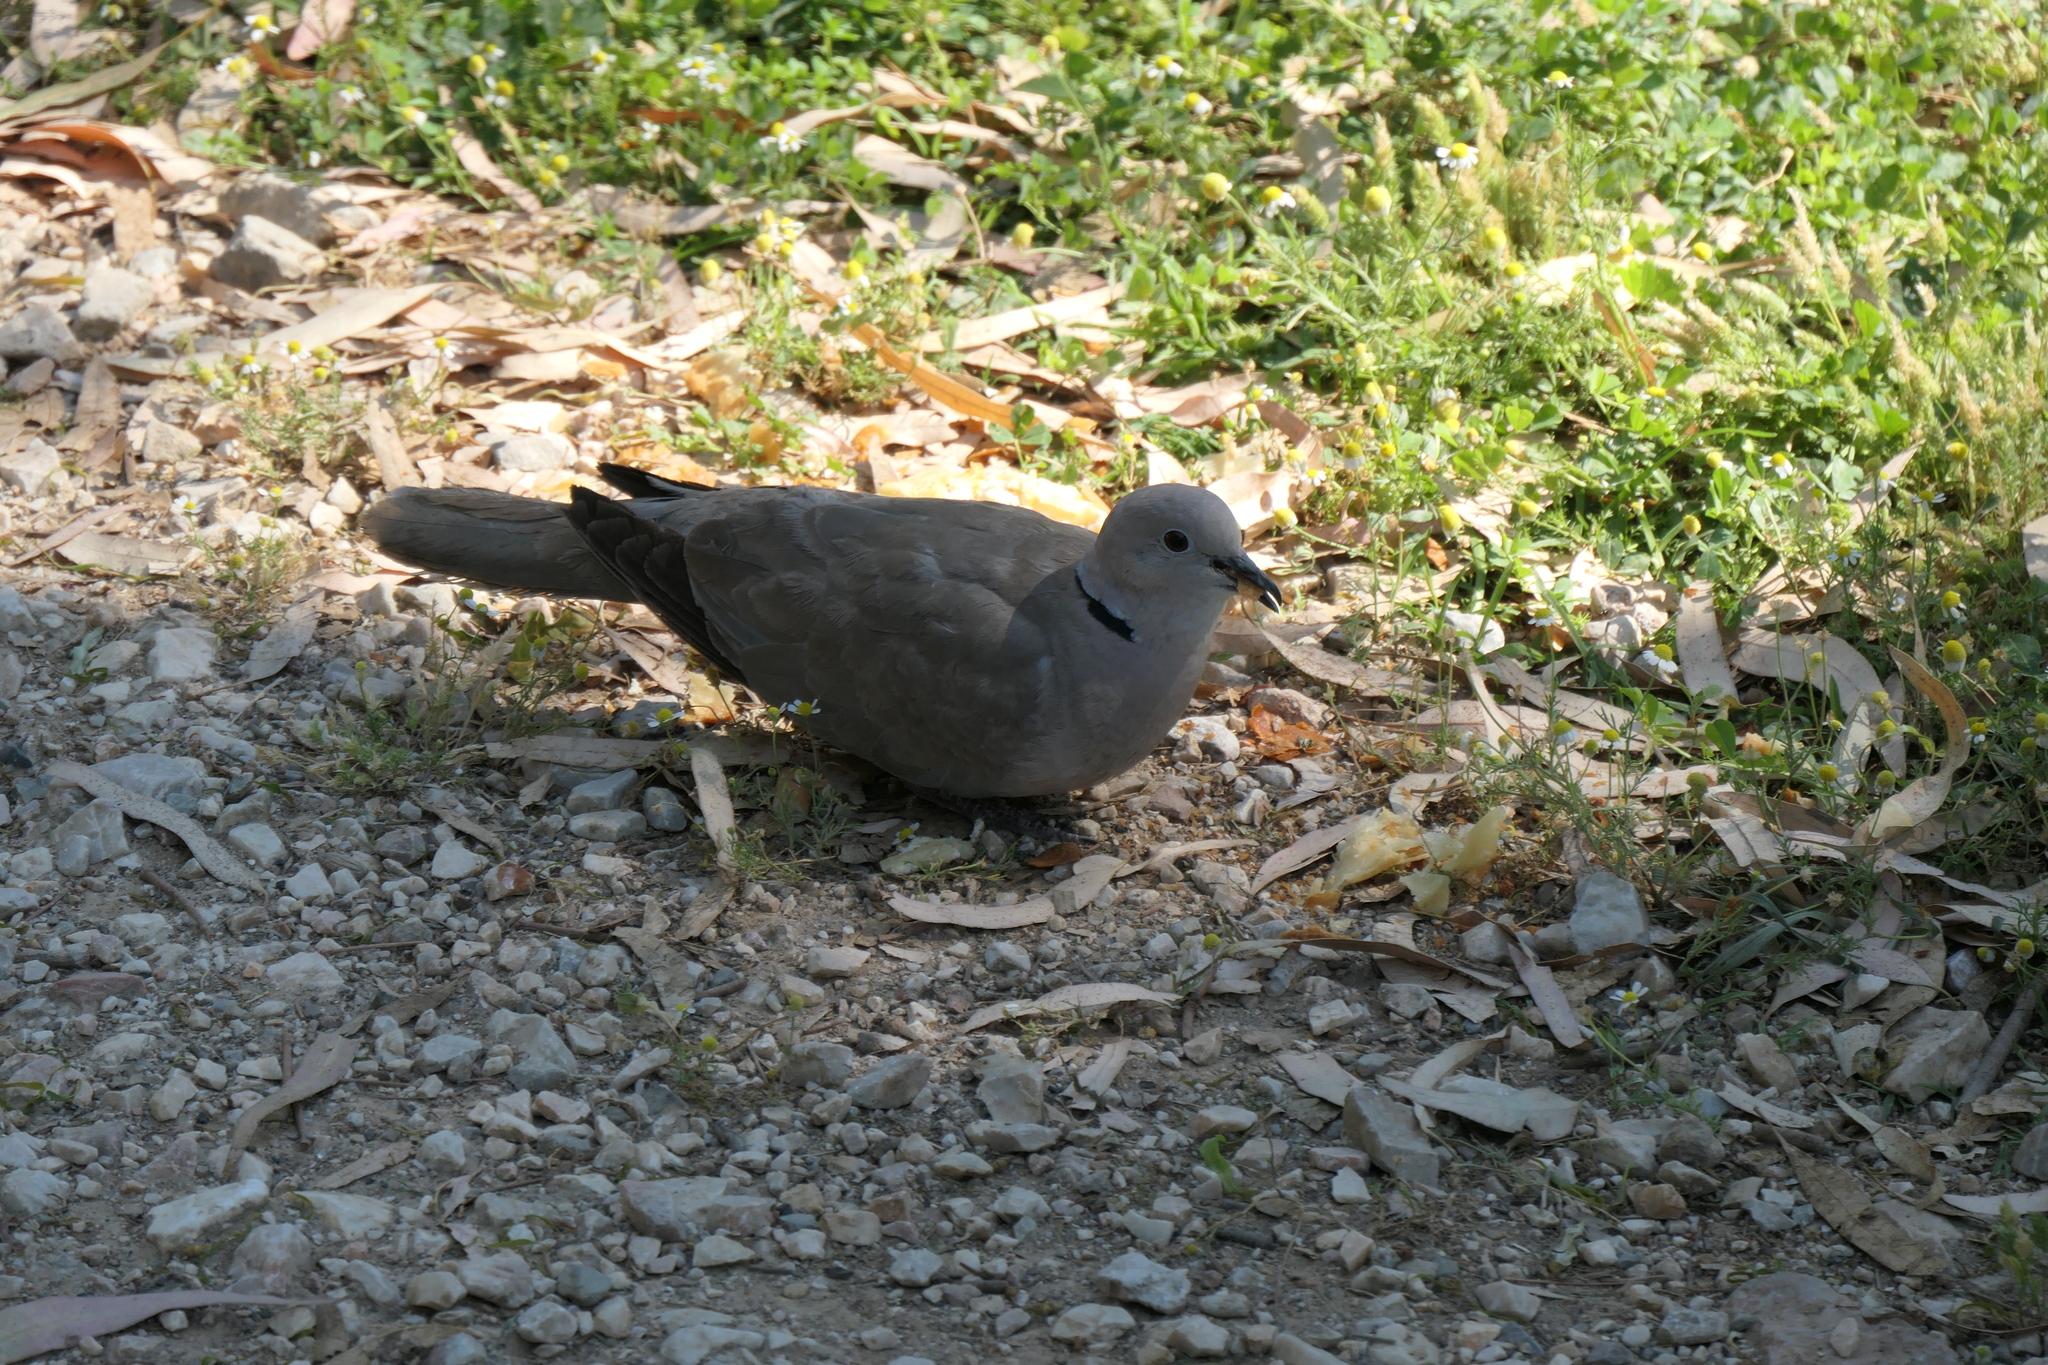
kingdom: Animalia
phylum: Chordata
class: Aves
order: Columbiformes
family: Columbidae
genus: Streptopelia
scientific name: Streptopelia decaocto
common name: Eurasian collared dove
